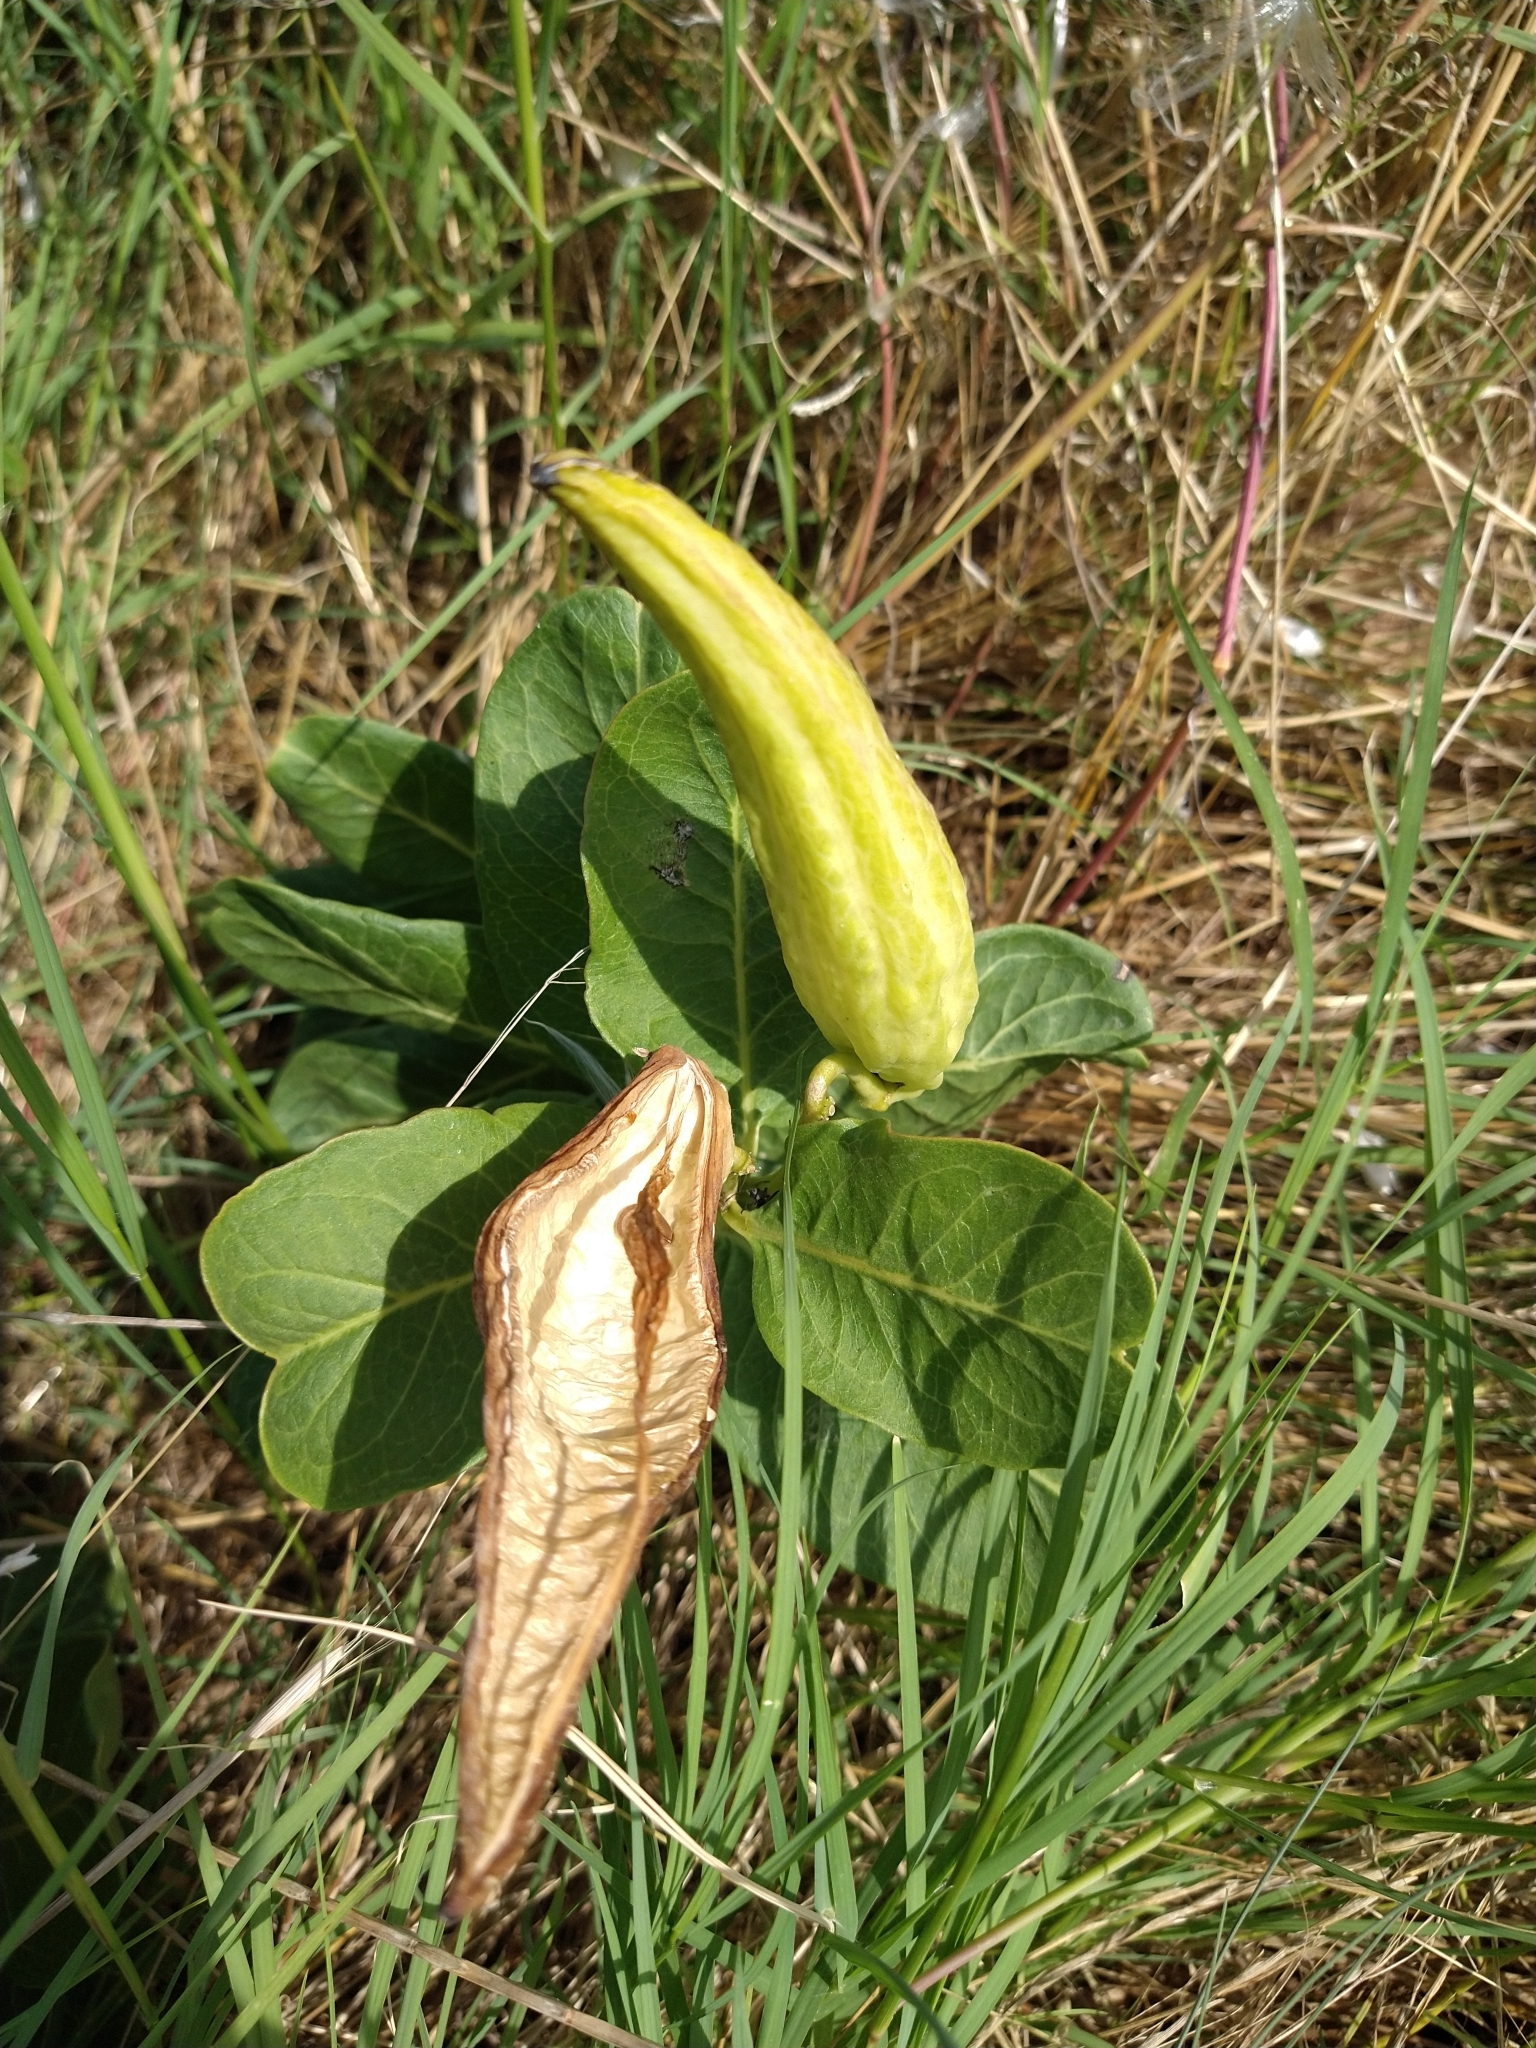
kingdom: Plantae
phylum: Tracheophyta
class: Magnoliopsida
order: Gentianales
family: Apocynaceae
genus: Asclepias
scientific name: Asclepias viridis
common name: Antelope-horns
